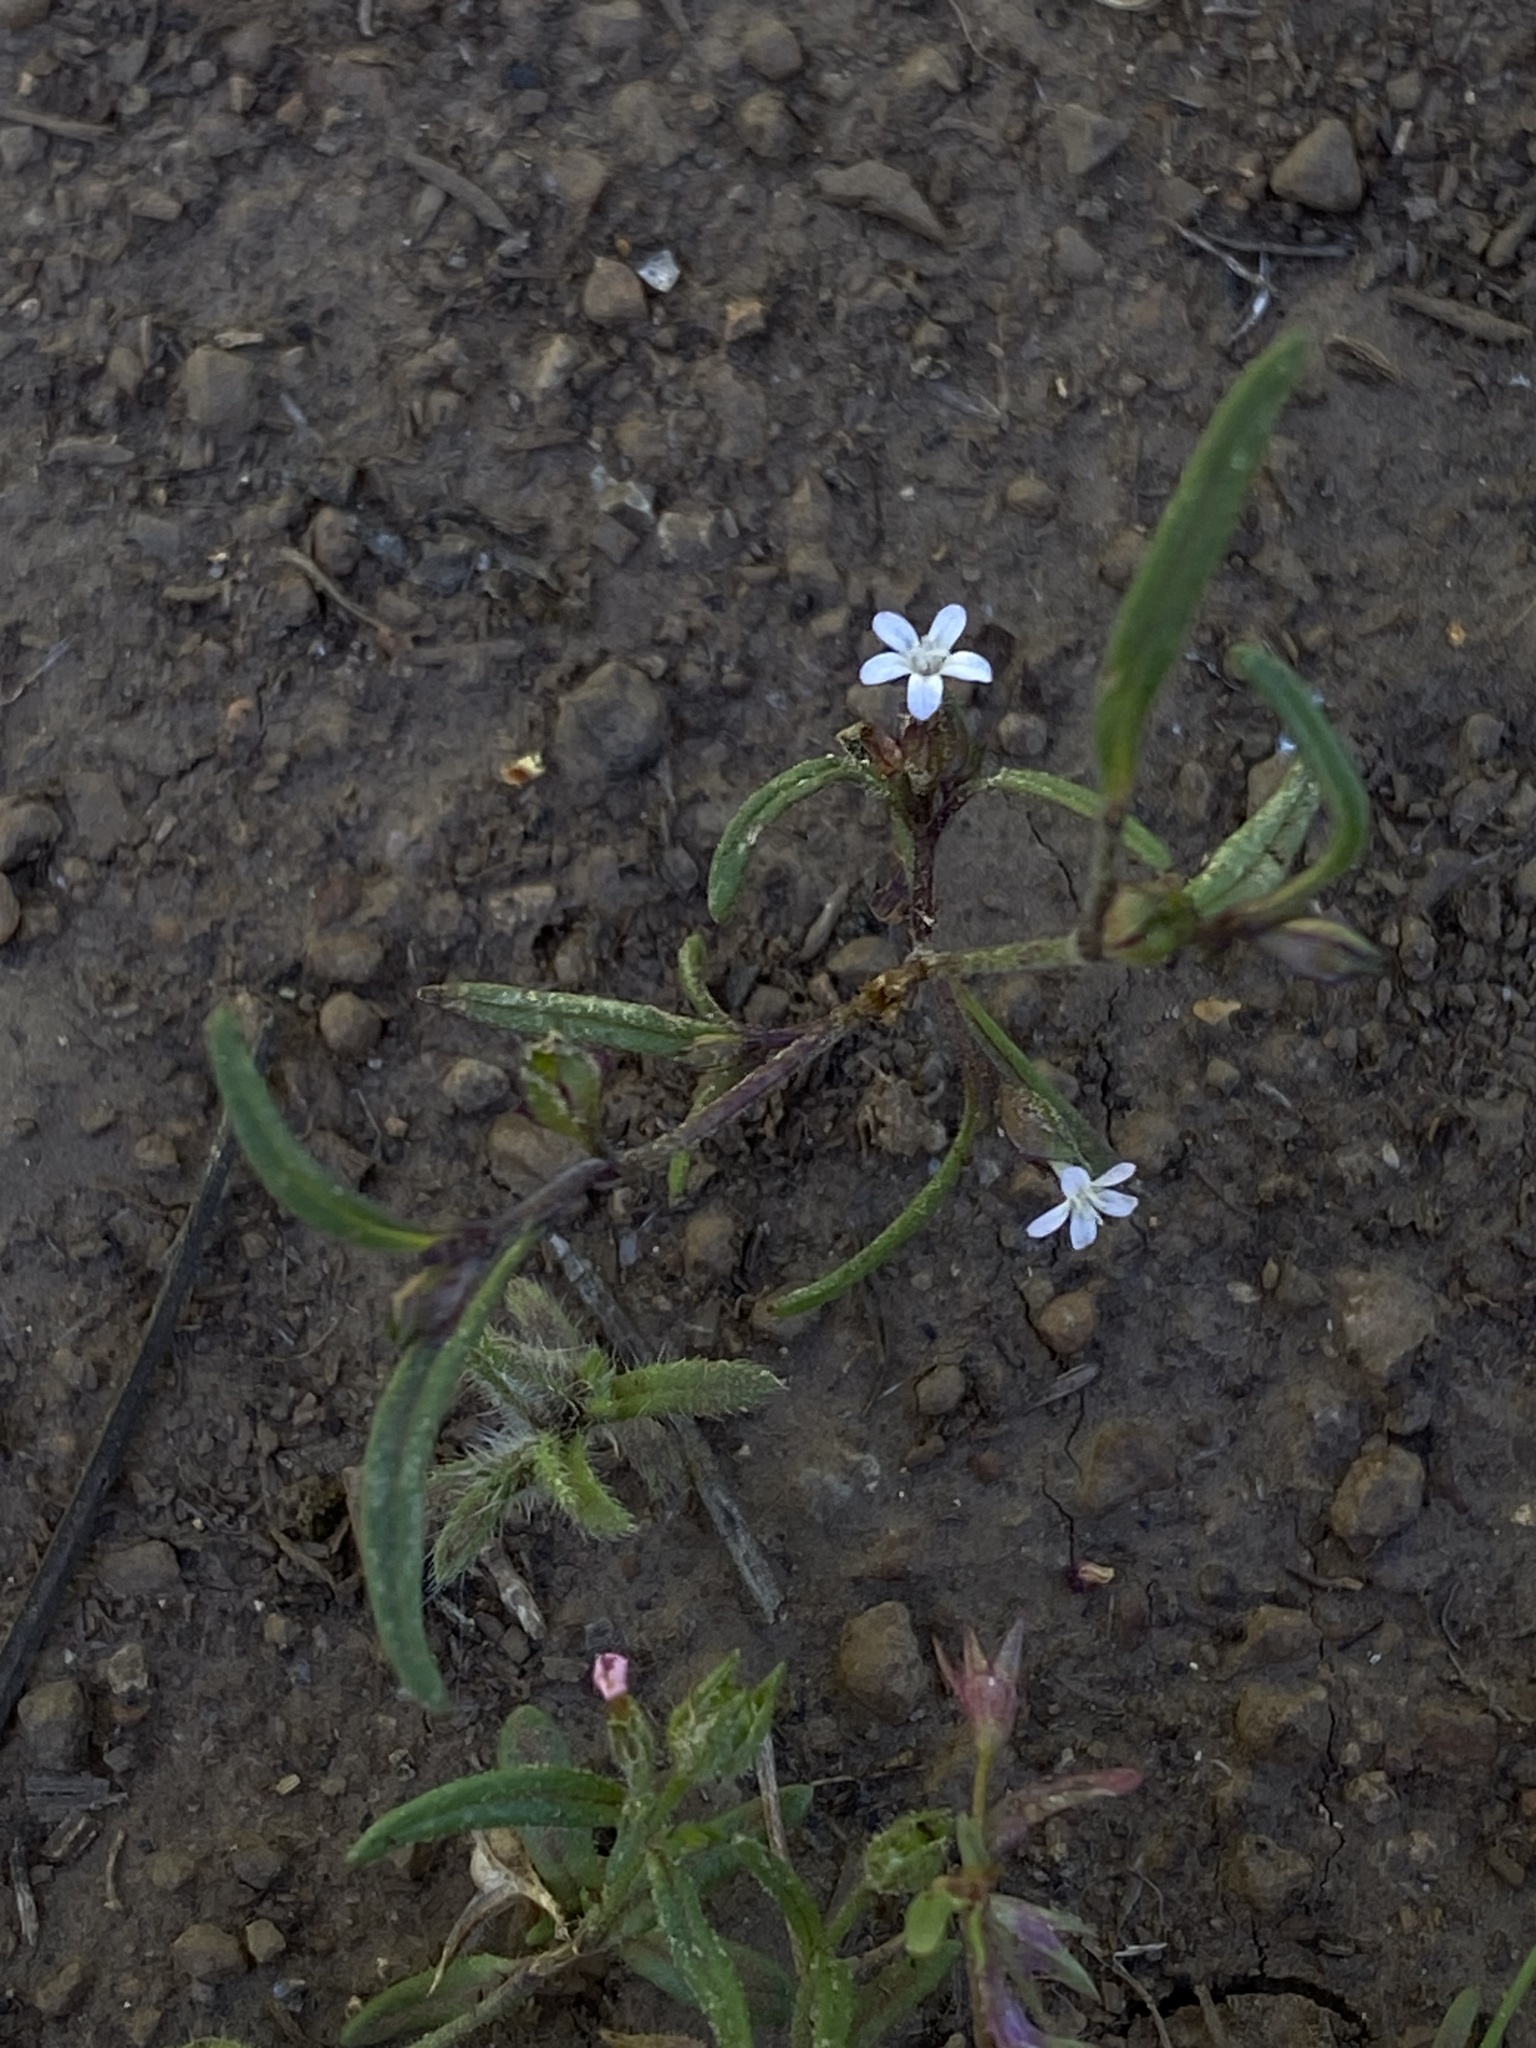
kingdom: Plantae
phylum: Tracheophyta
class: Magnoliopsida
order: Ericales
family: Polemoniaceae
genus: Collomia
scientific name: Collomia tenella
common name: Diffuse collomia
